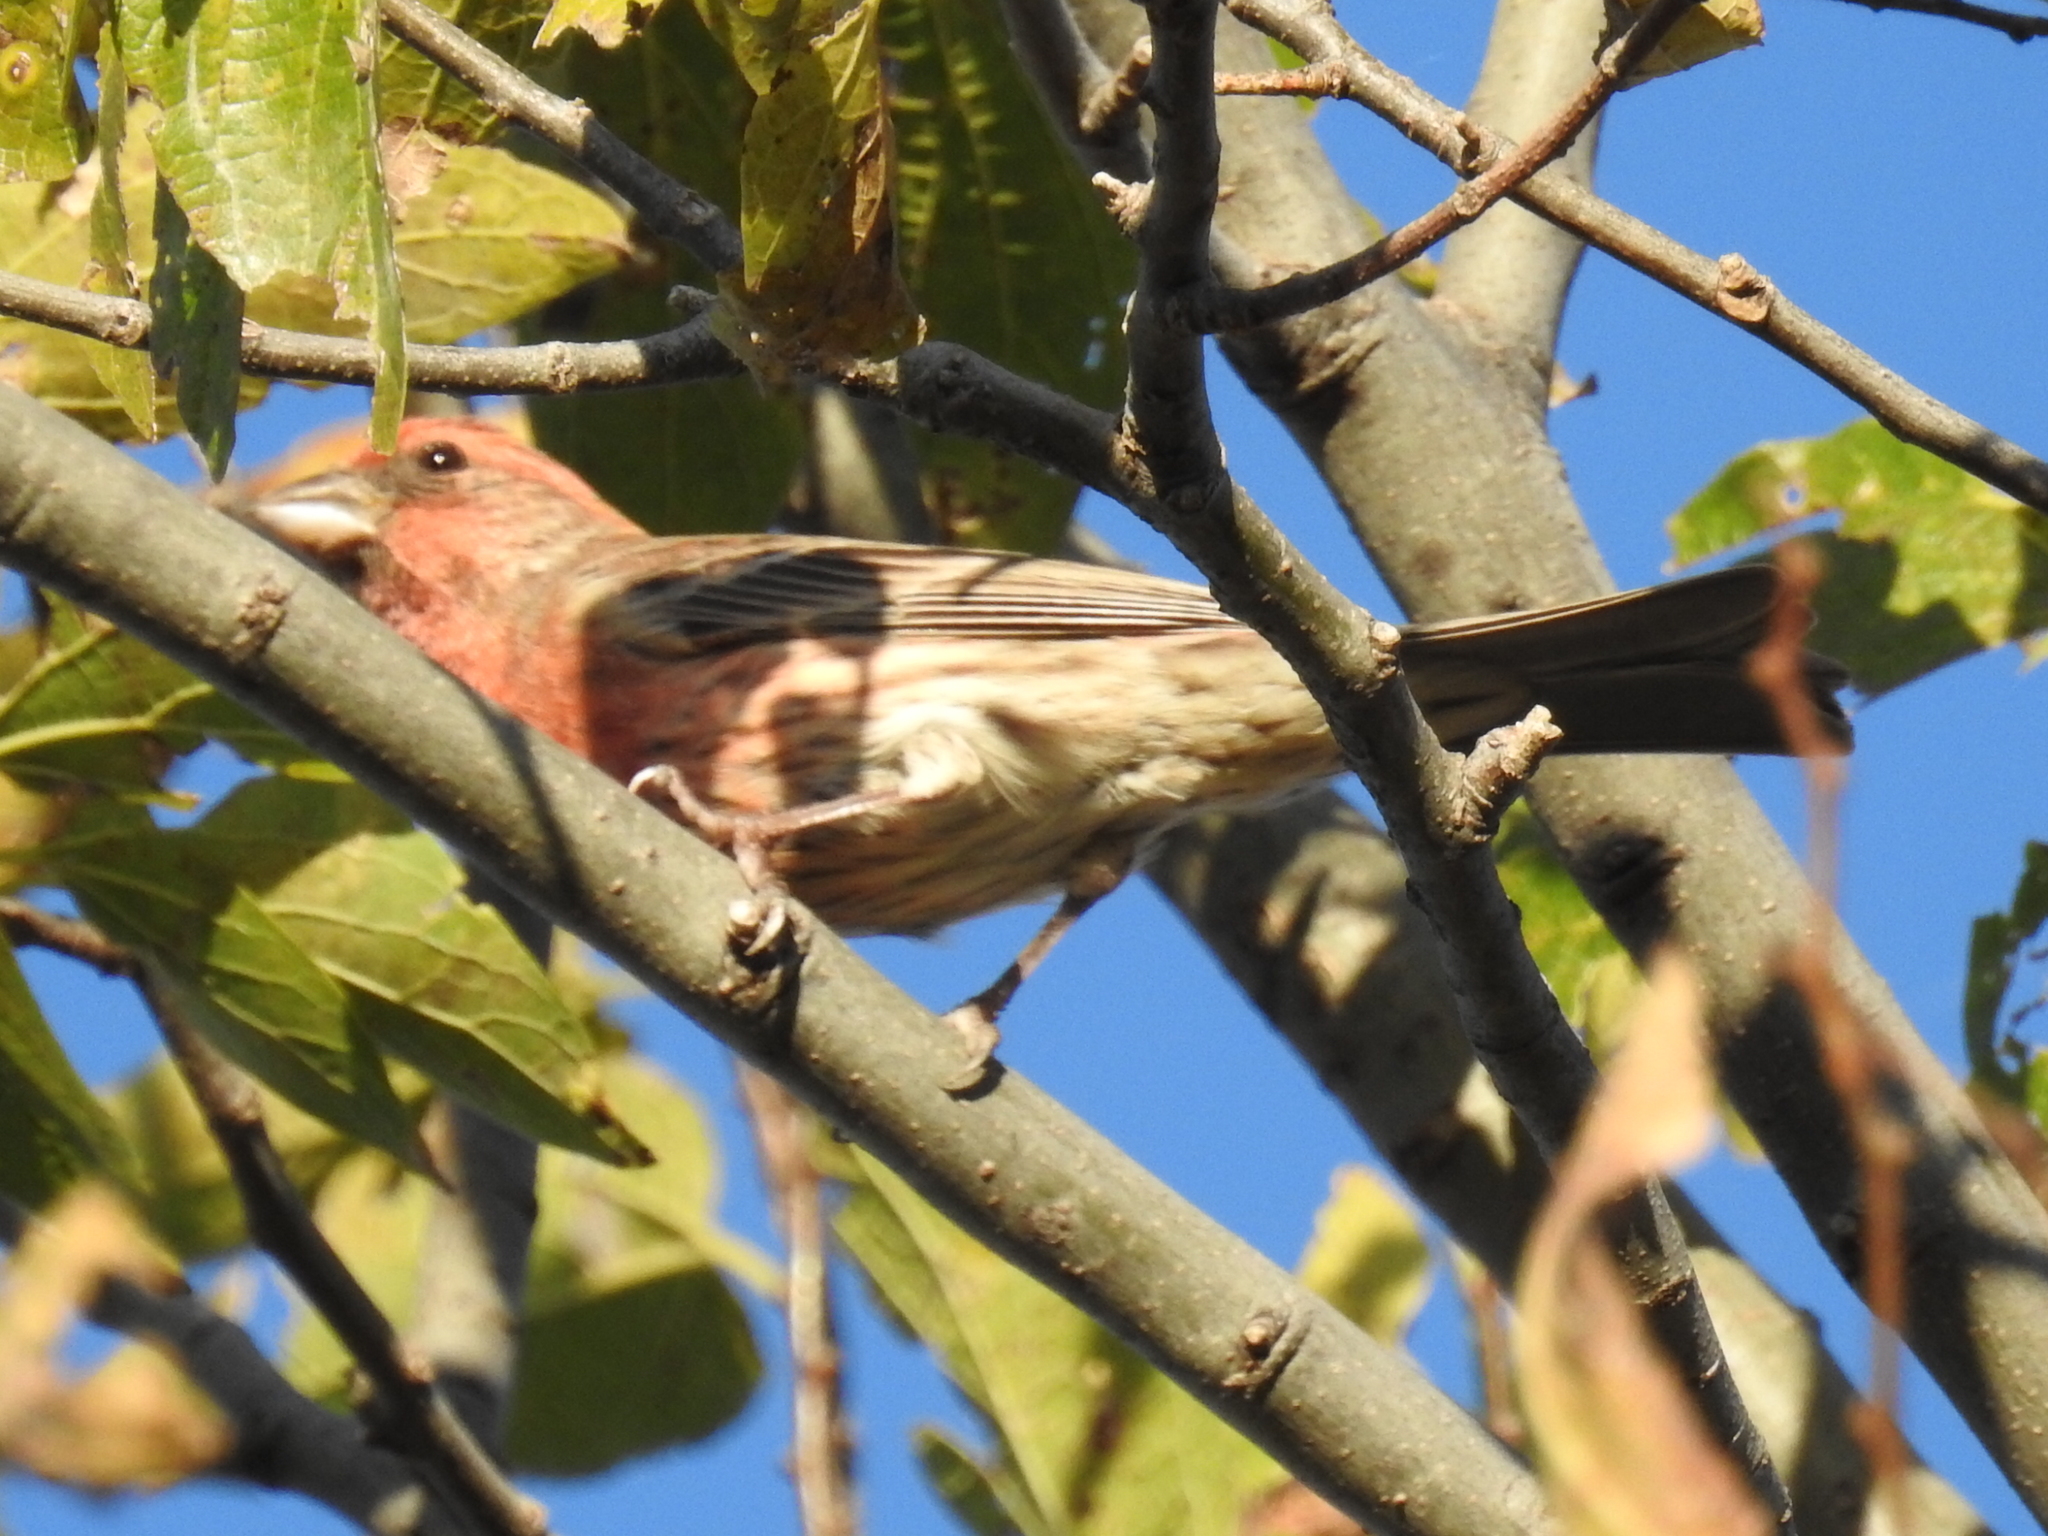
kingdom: Animalia
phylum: Chordata
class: Aves
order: Passeriformes
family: Fringillidae
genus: Haemorhous
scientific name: Haemorhous mexicanus
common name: House finch
